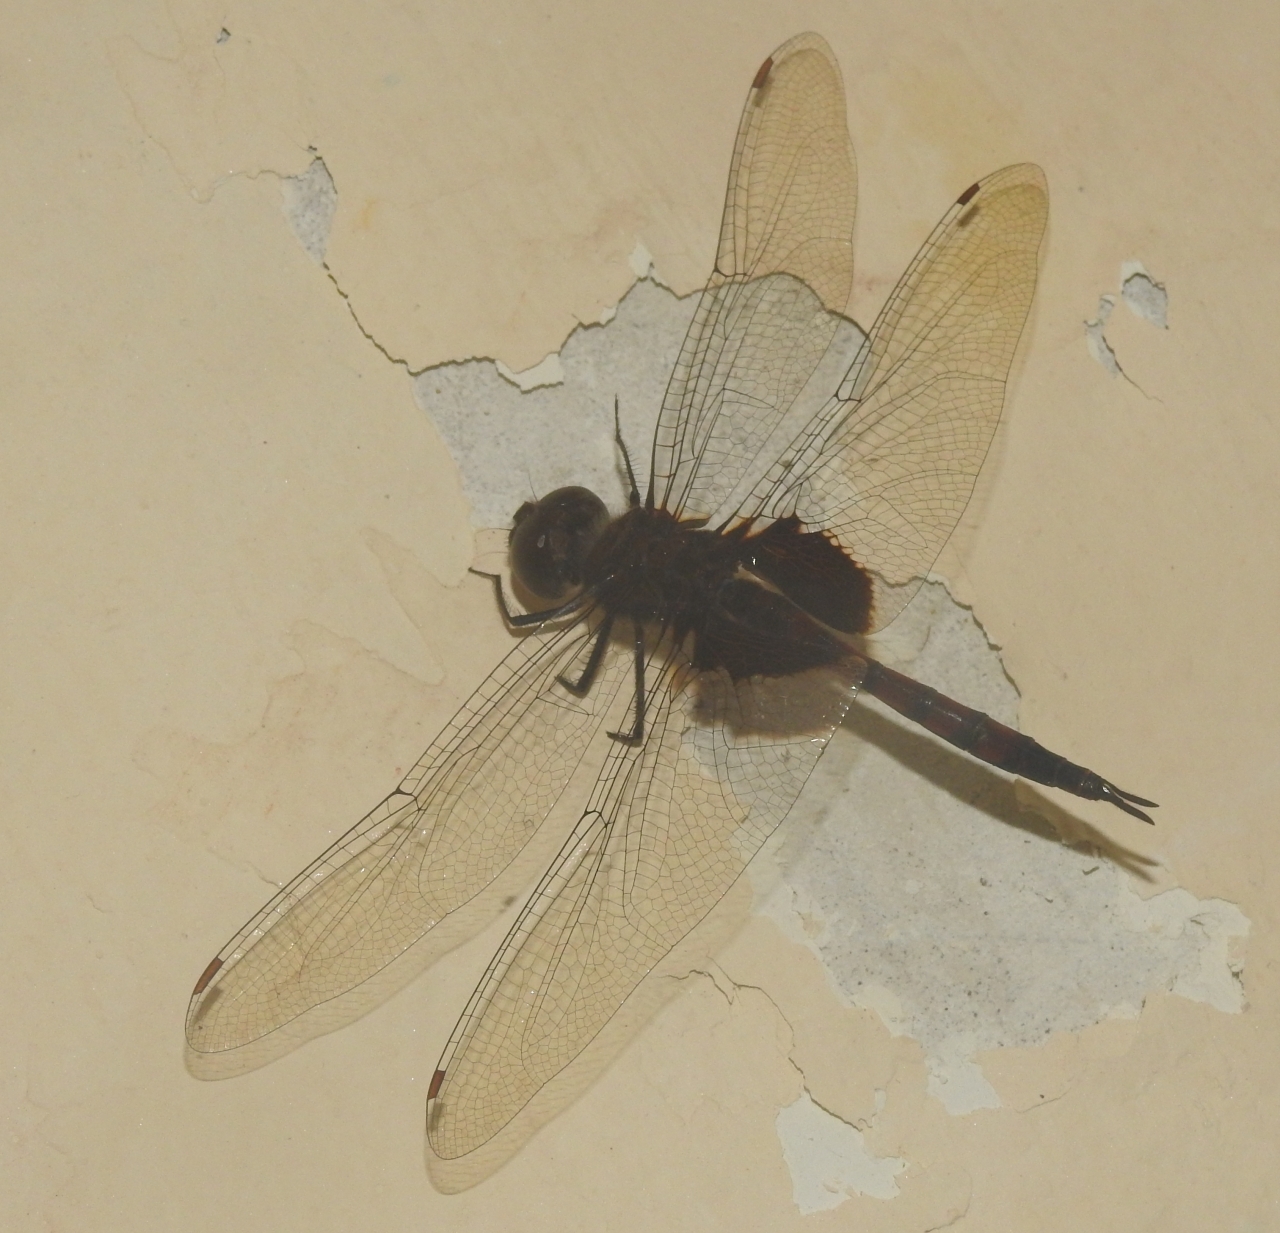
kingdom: Animalia
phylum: Arthropoda
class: Insecta
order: Odonata
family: Libellulidae
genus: Tramea
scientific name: Tramea limbata
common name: Ferruginous glider
